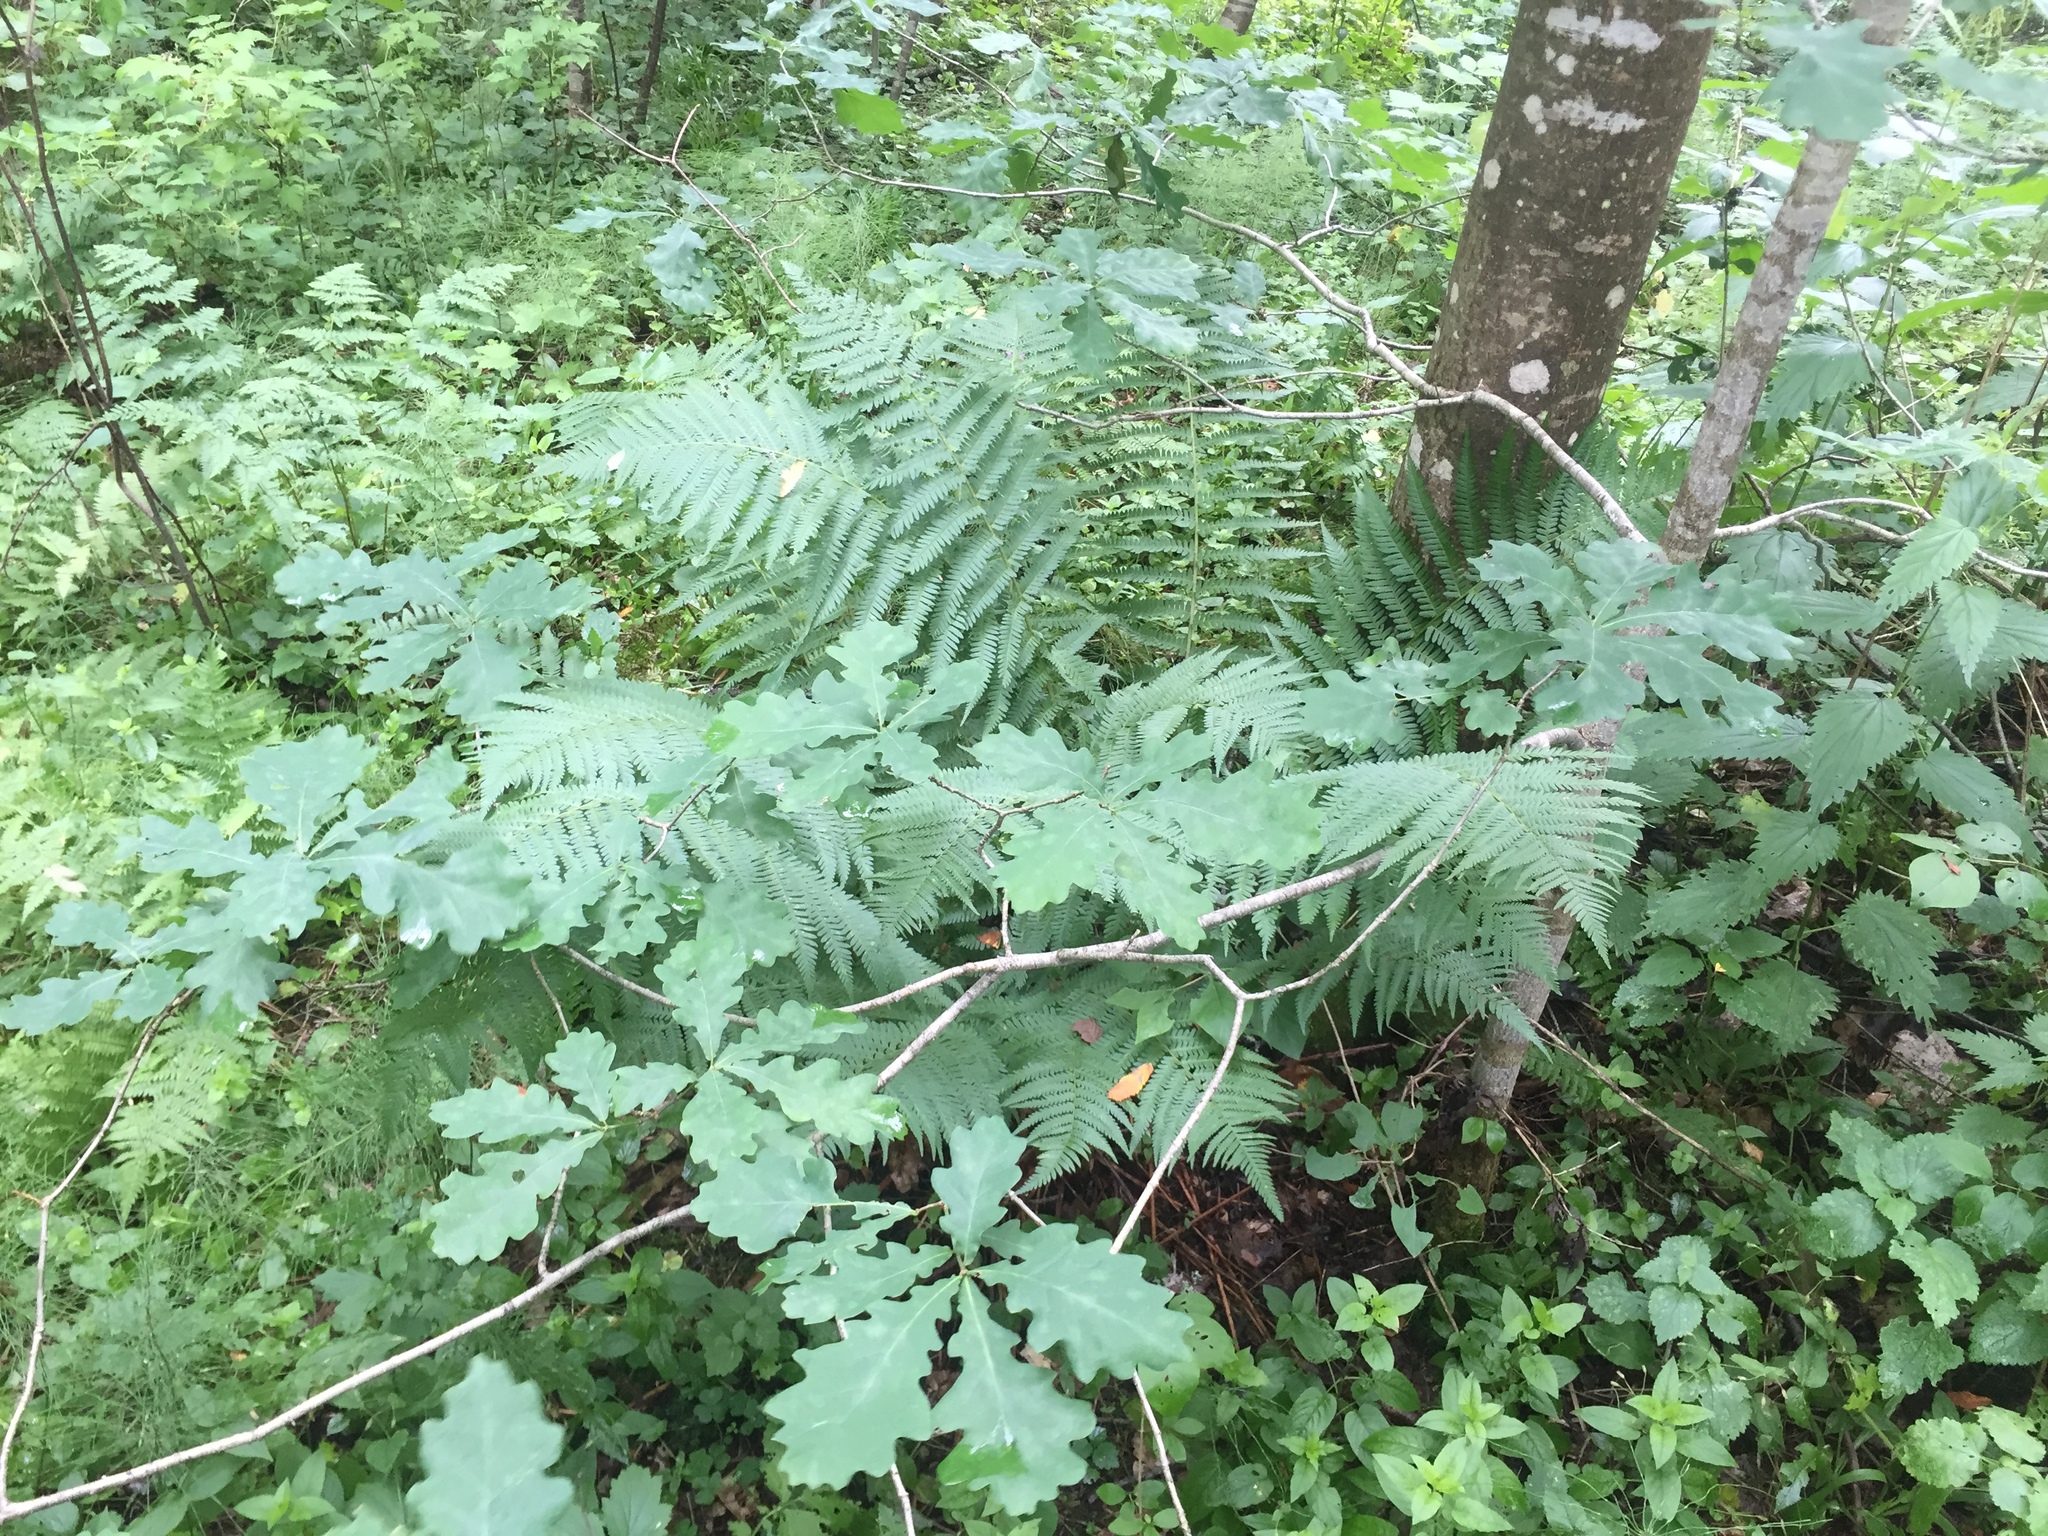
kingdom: Plantae
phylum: Tracheophyta
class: Magnoliopsida
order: Fagales
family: Fagaceae
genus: Quercus
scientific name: Quercus robur
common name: Pedunculate oak
